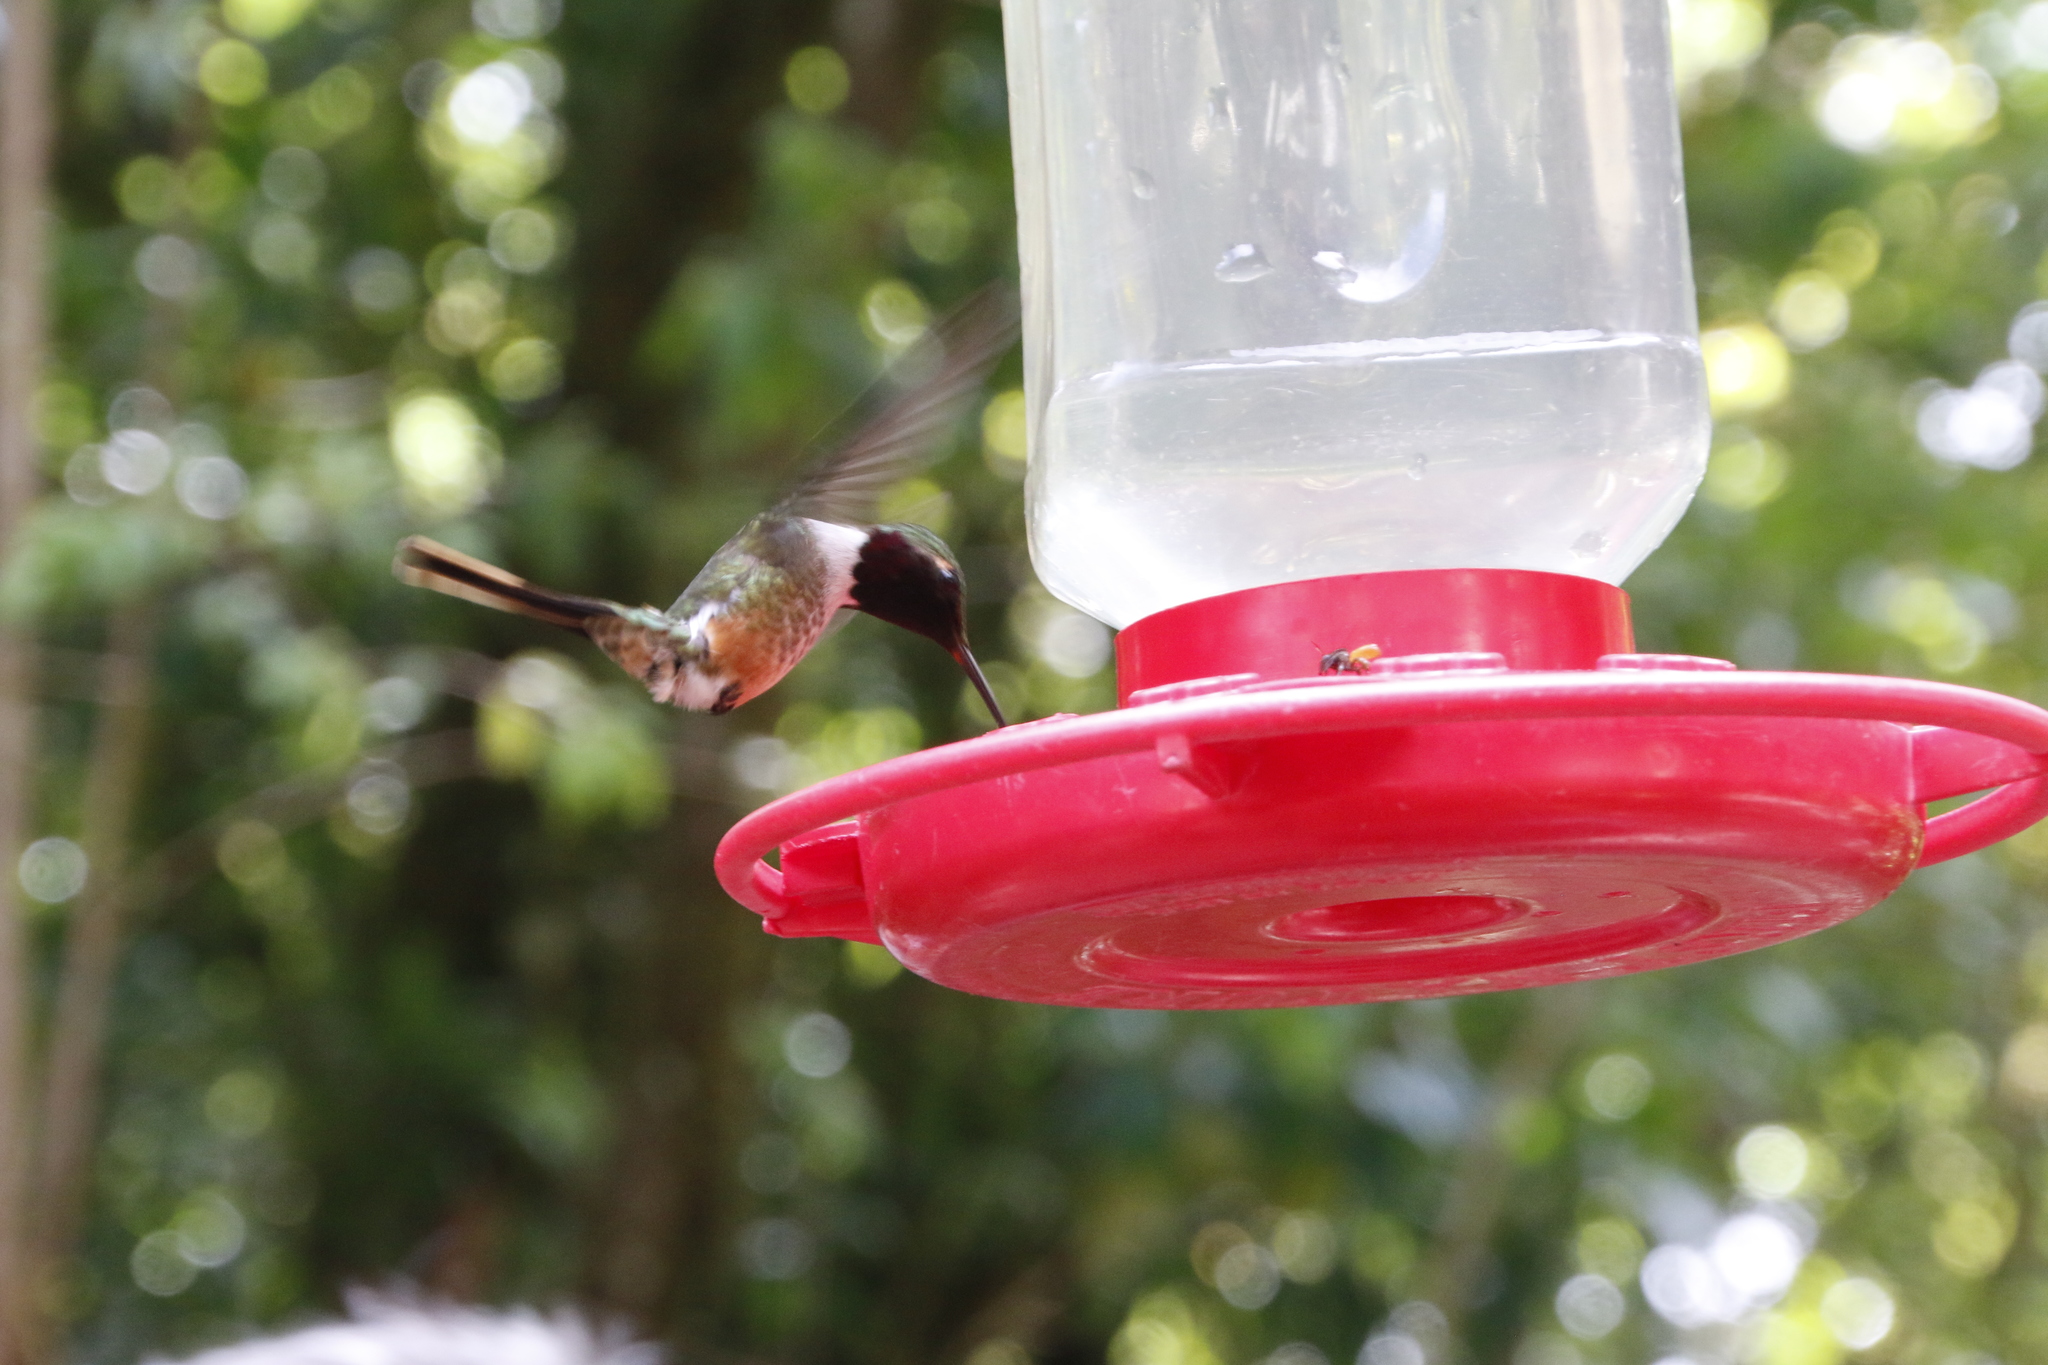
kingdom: Animalia
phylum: Chordata
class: Aves
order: Apodiformes
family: Trochilidae
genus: Calliphlox
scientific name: Calliphlox bryantae
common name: Magenta-throated woodstar
